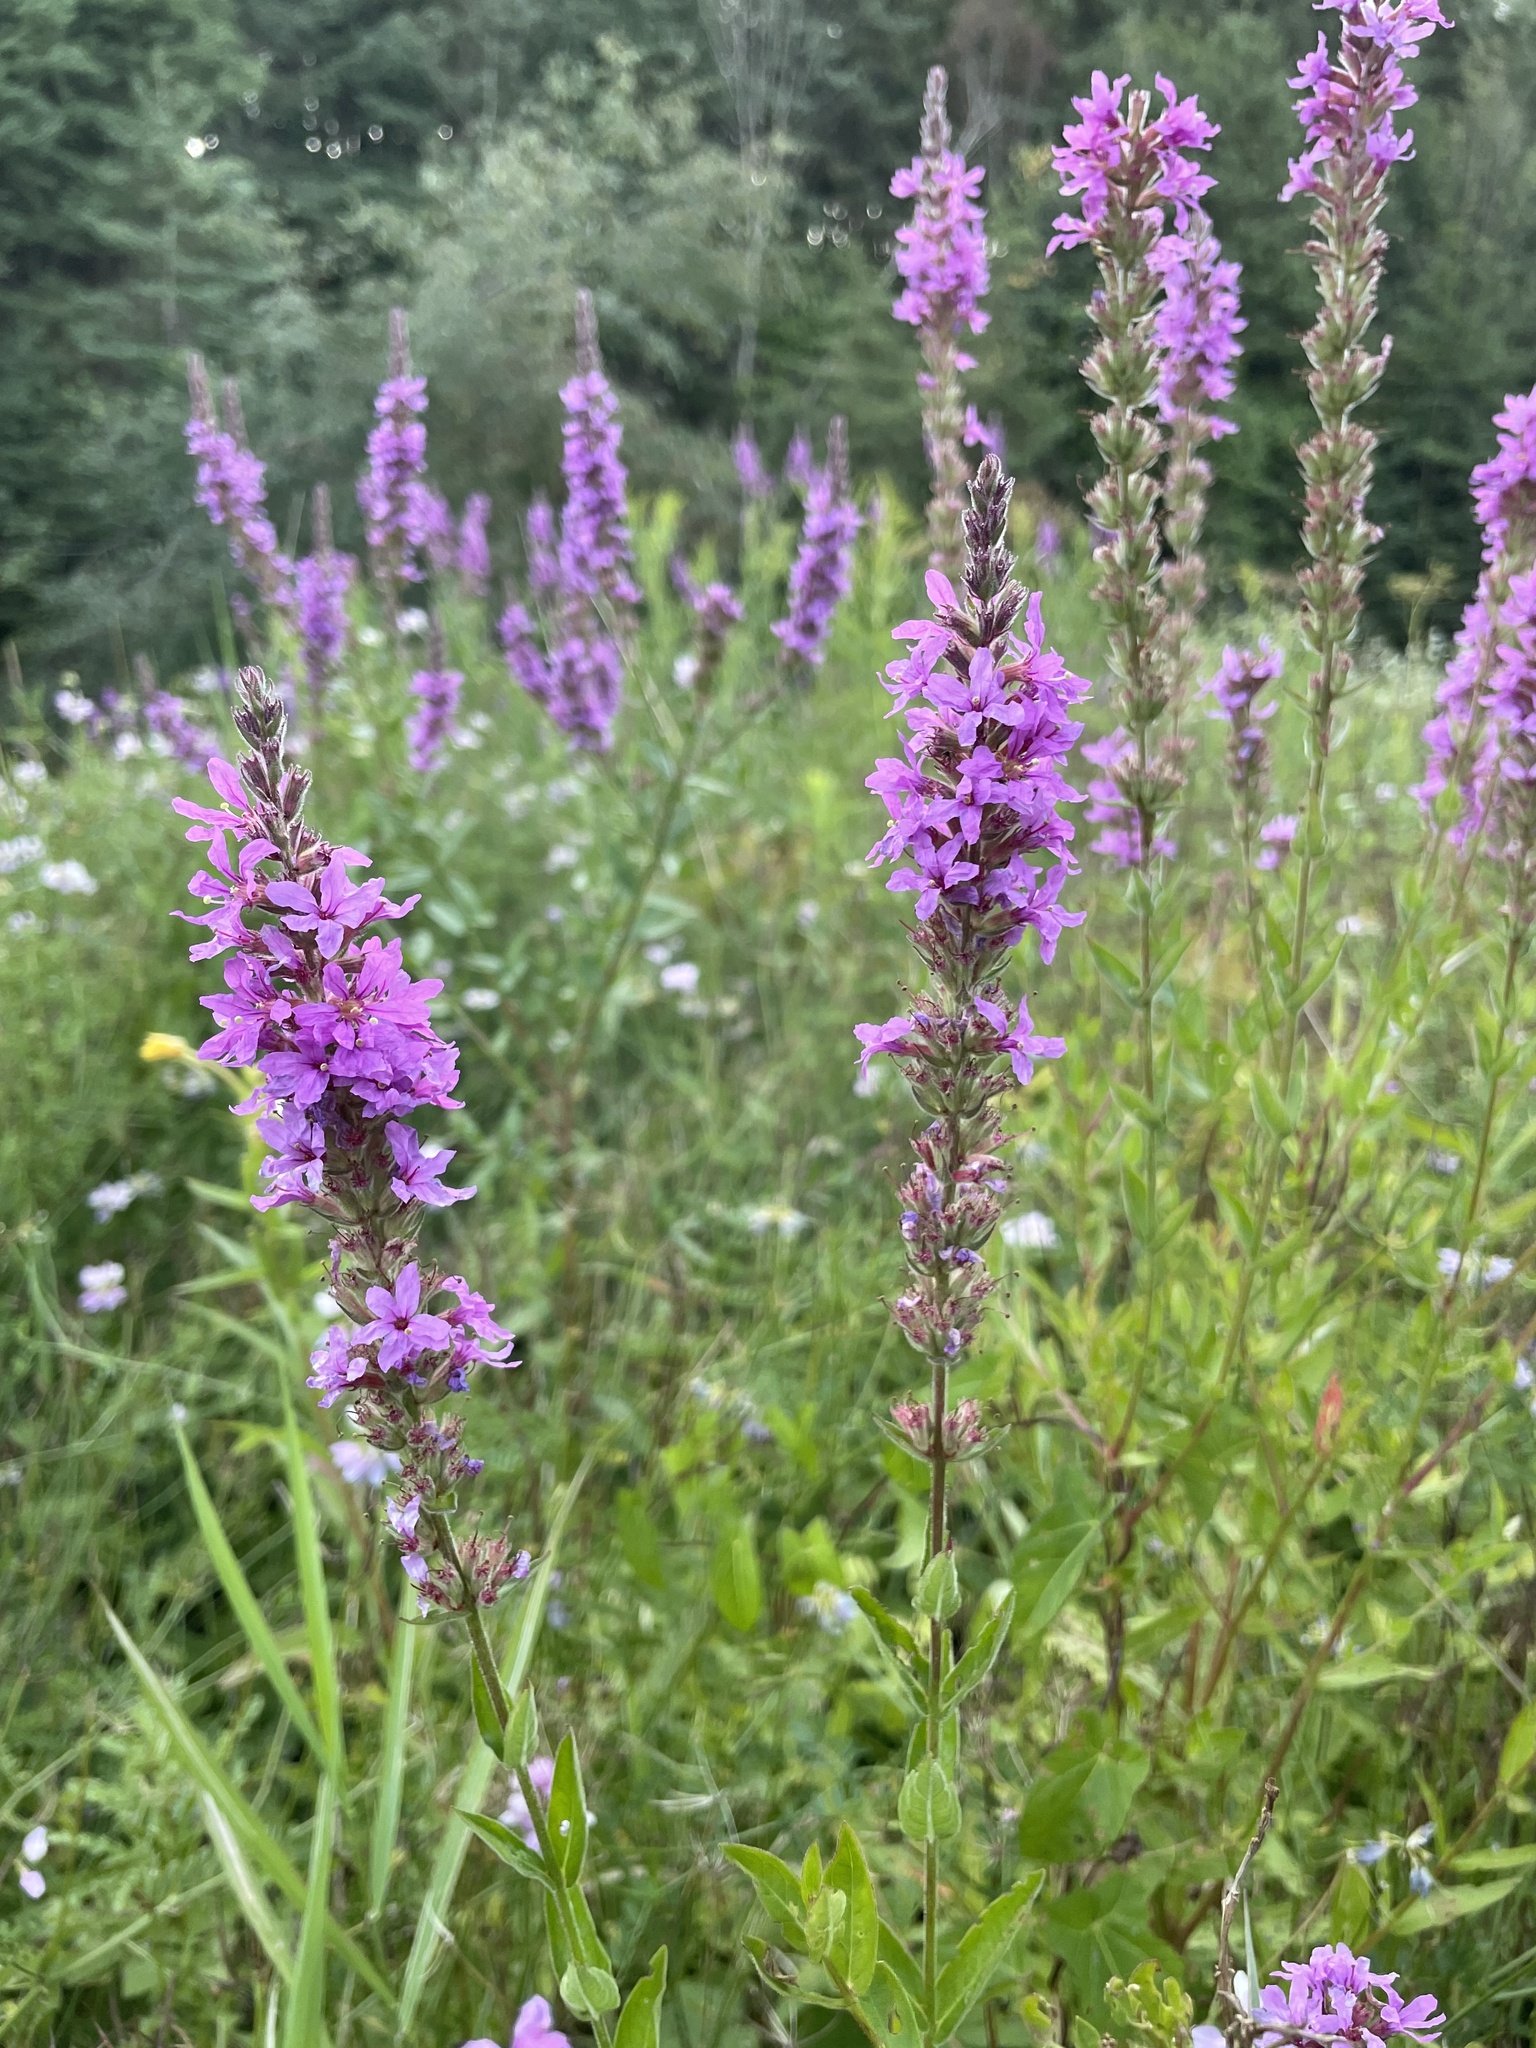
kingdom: Plantae
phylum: Tracheophyta
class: Magnoliopsida
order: Myrtales
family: Lythraceae
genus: Lythrum
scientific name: Lythrum salicaria
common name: Purple loosestrife
